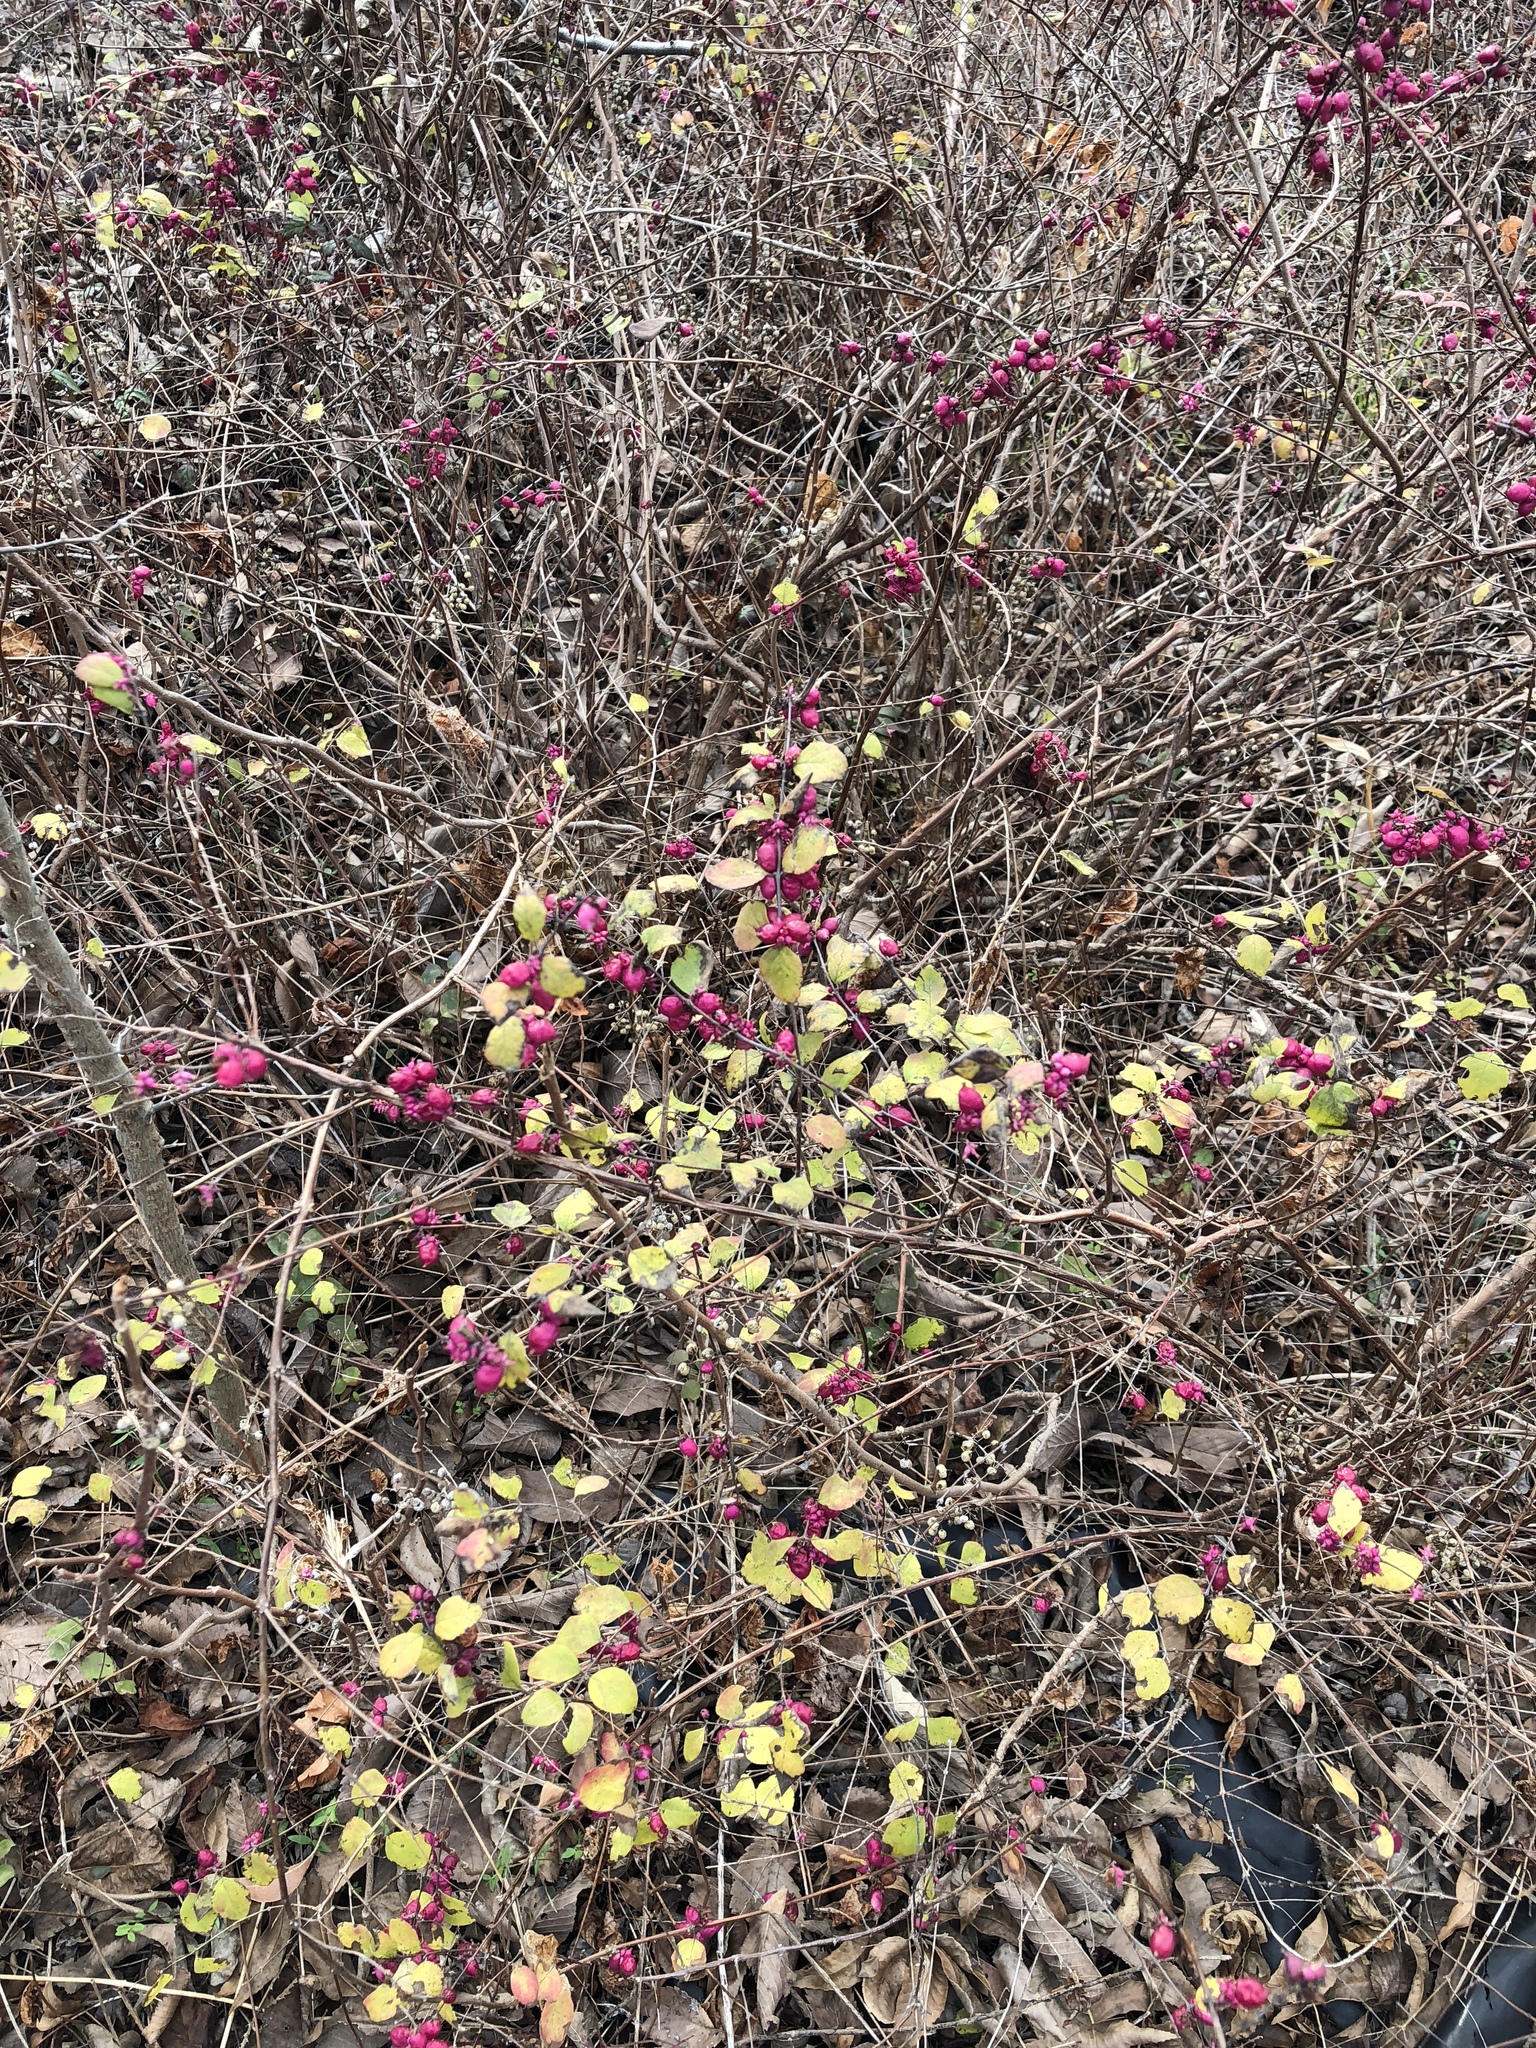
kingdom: Plantae
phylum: Tracheophyta
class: Magnoliopsida
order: Dipsacales
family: Caprifoliaceae
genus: Symphoricarpos
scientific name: Symphoricarpos orbiculatus
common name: Coralberry
